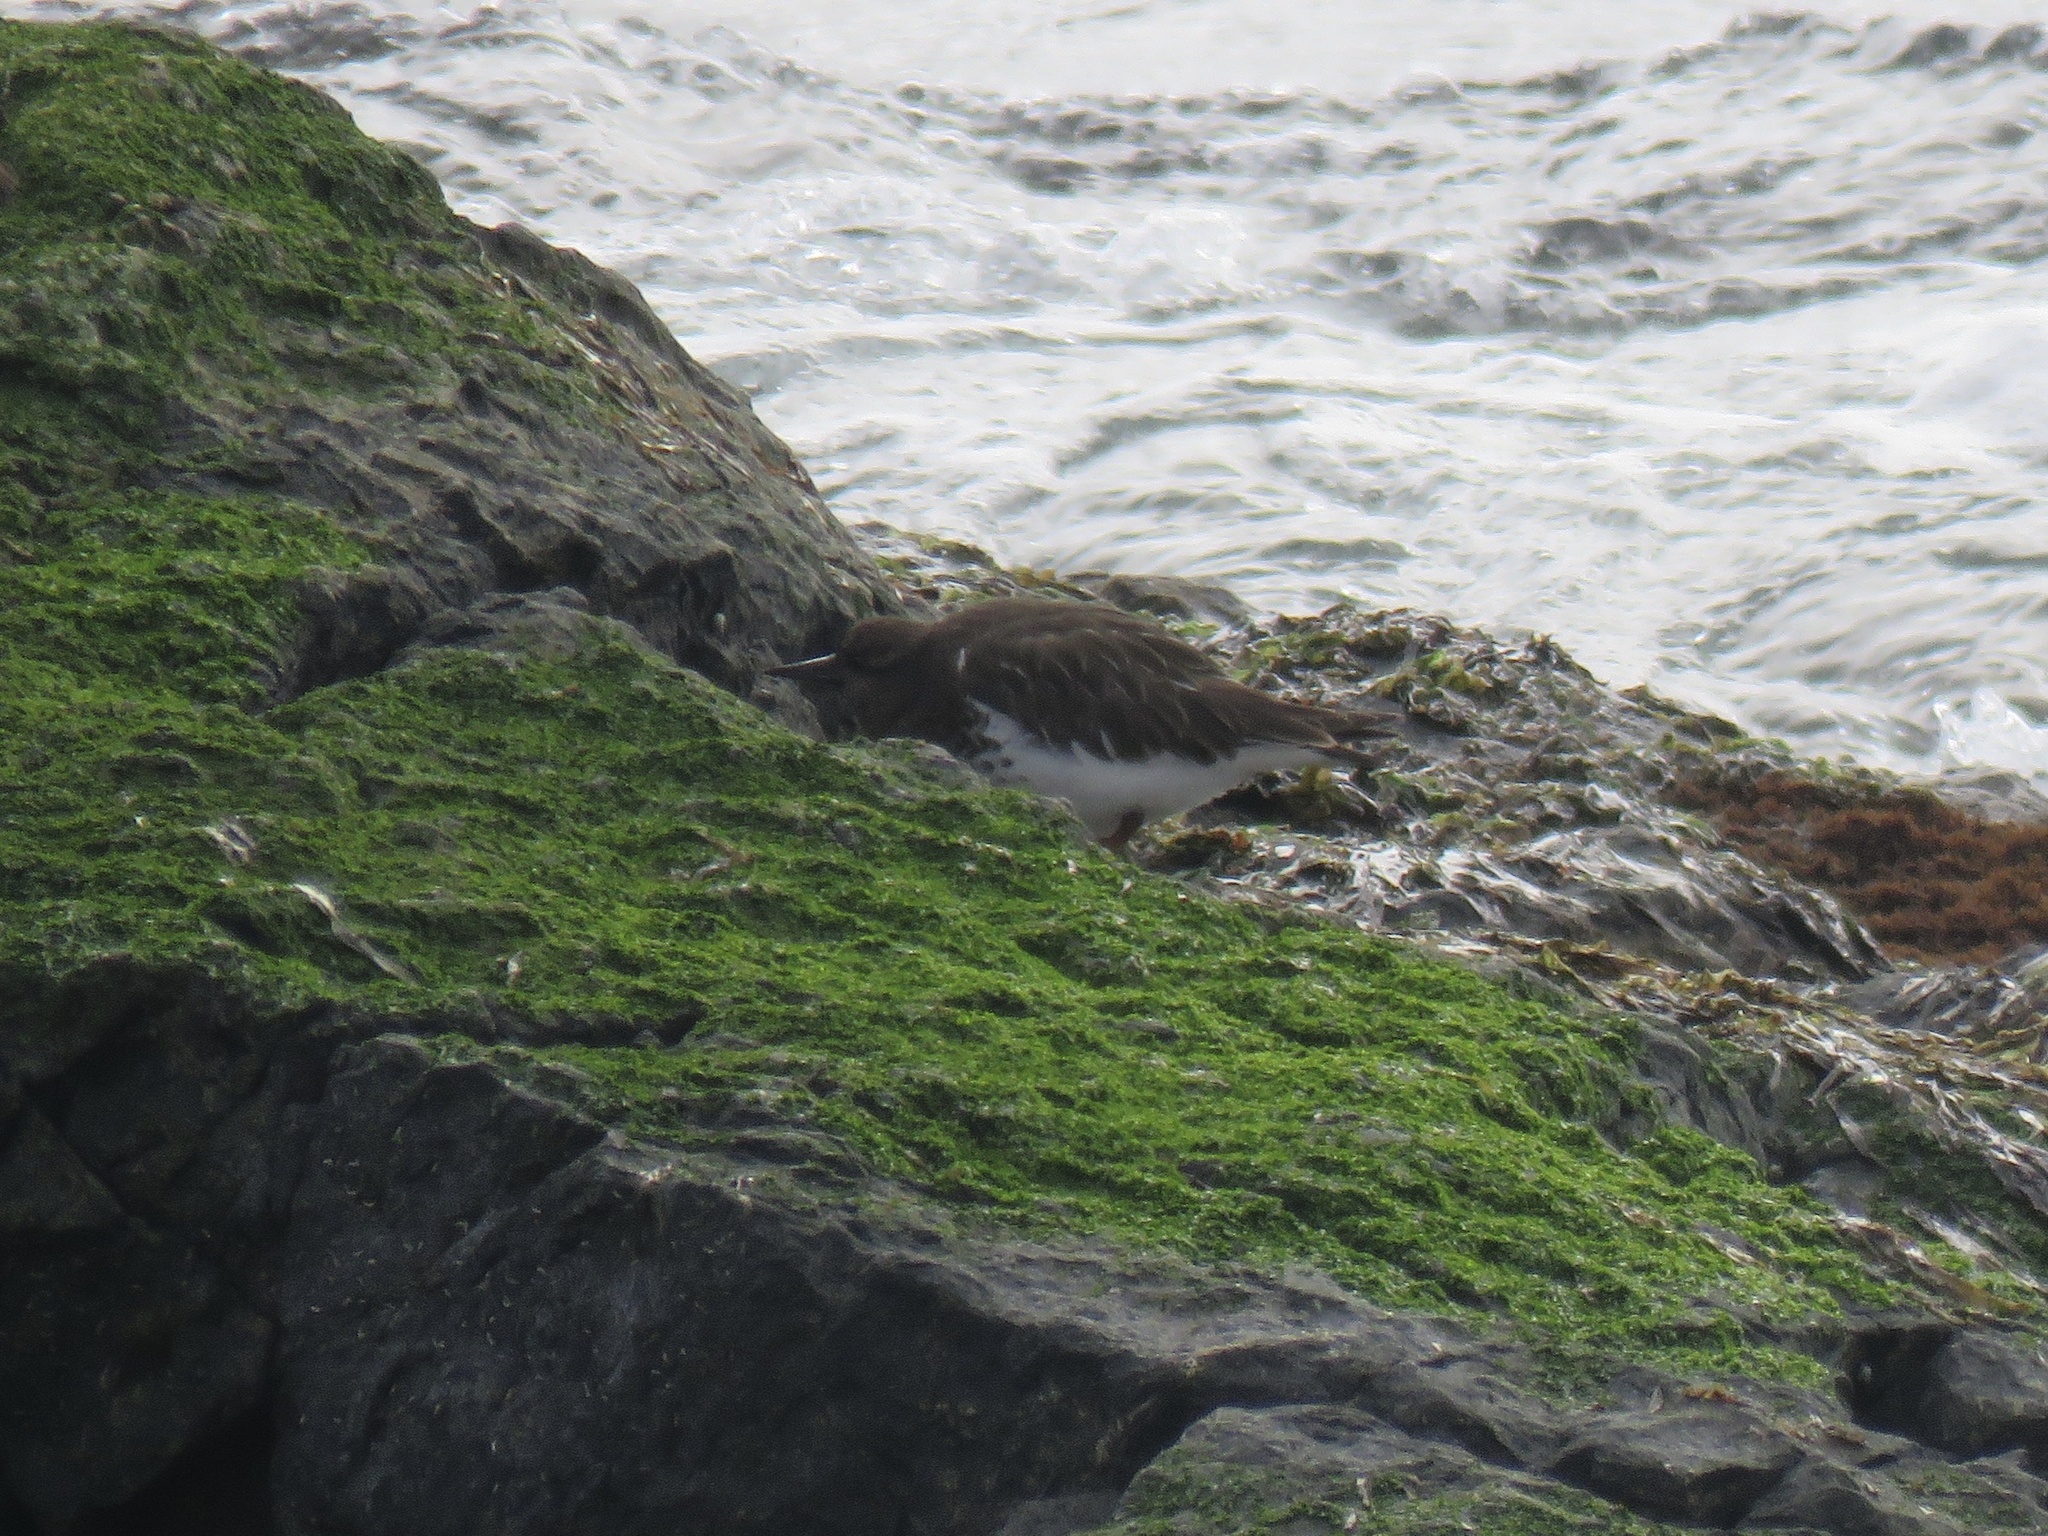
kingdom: Animalia
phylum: Chordata
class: Aves
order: Charadriiformes
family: Scolopacidae
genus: Arenaria
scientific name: Arenaria melanocephala
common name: Black turnstone
